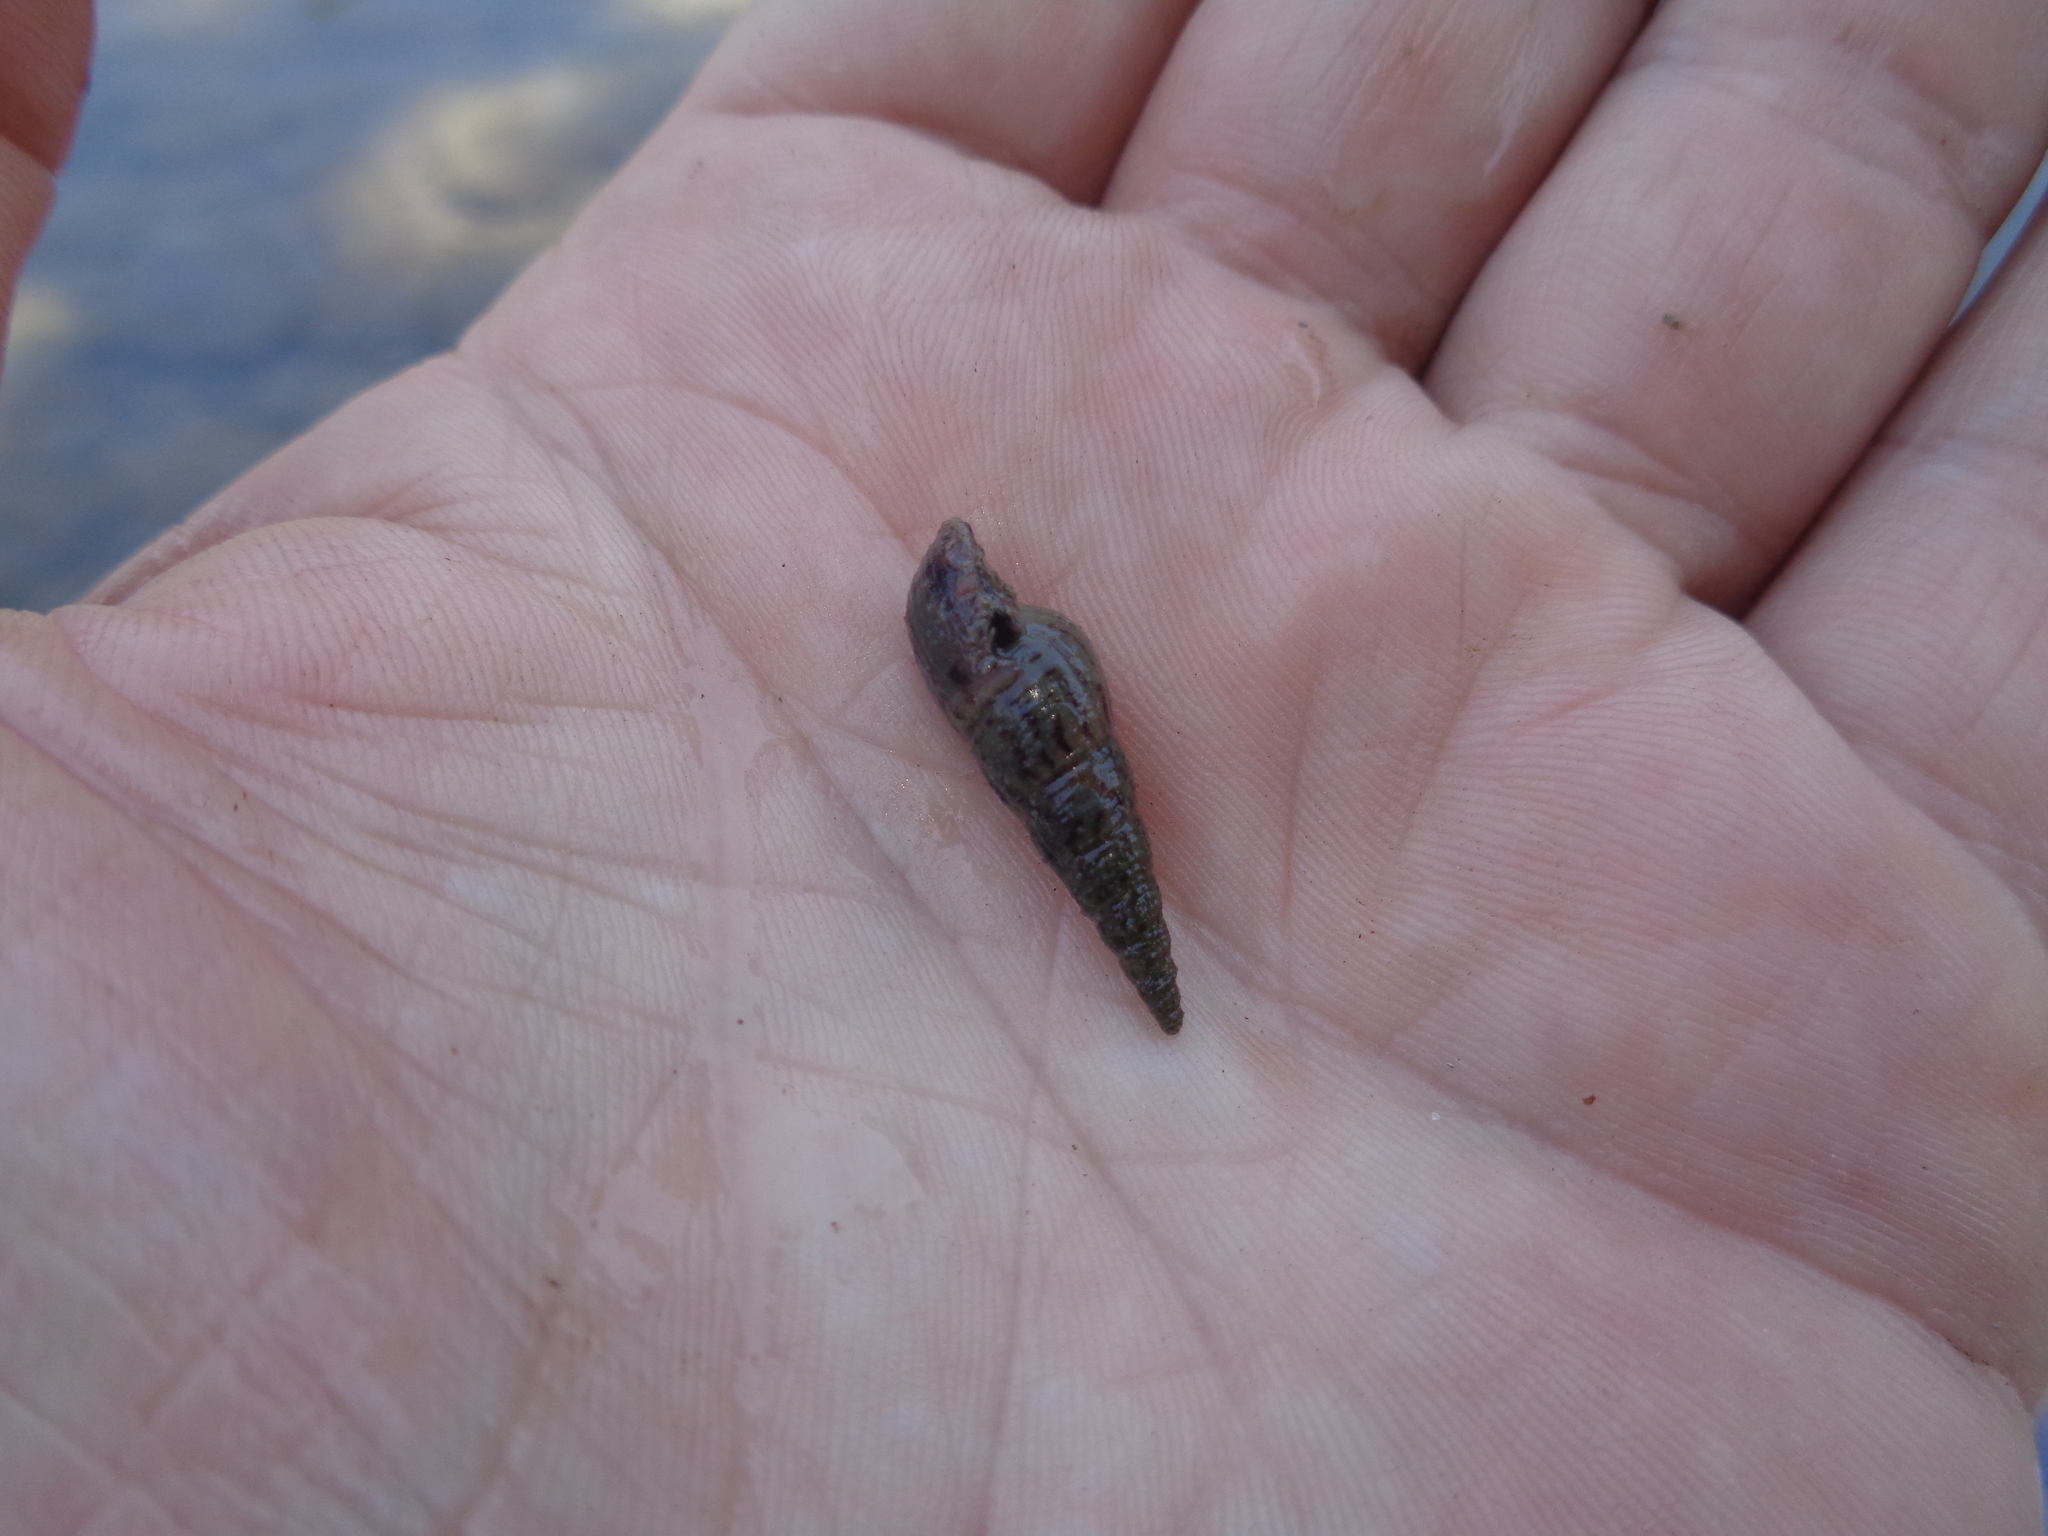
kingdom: Animalia
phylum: Mollusca
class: Gastropoda
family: Thiaridae
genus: Melanoides
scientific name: Melanoides tuberculata
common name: Red-rim melania
